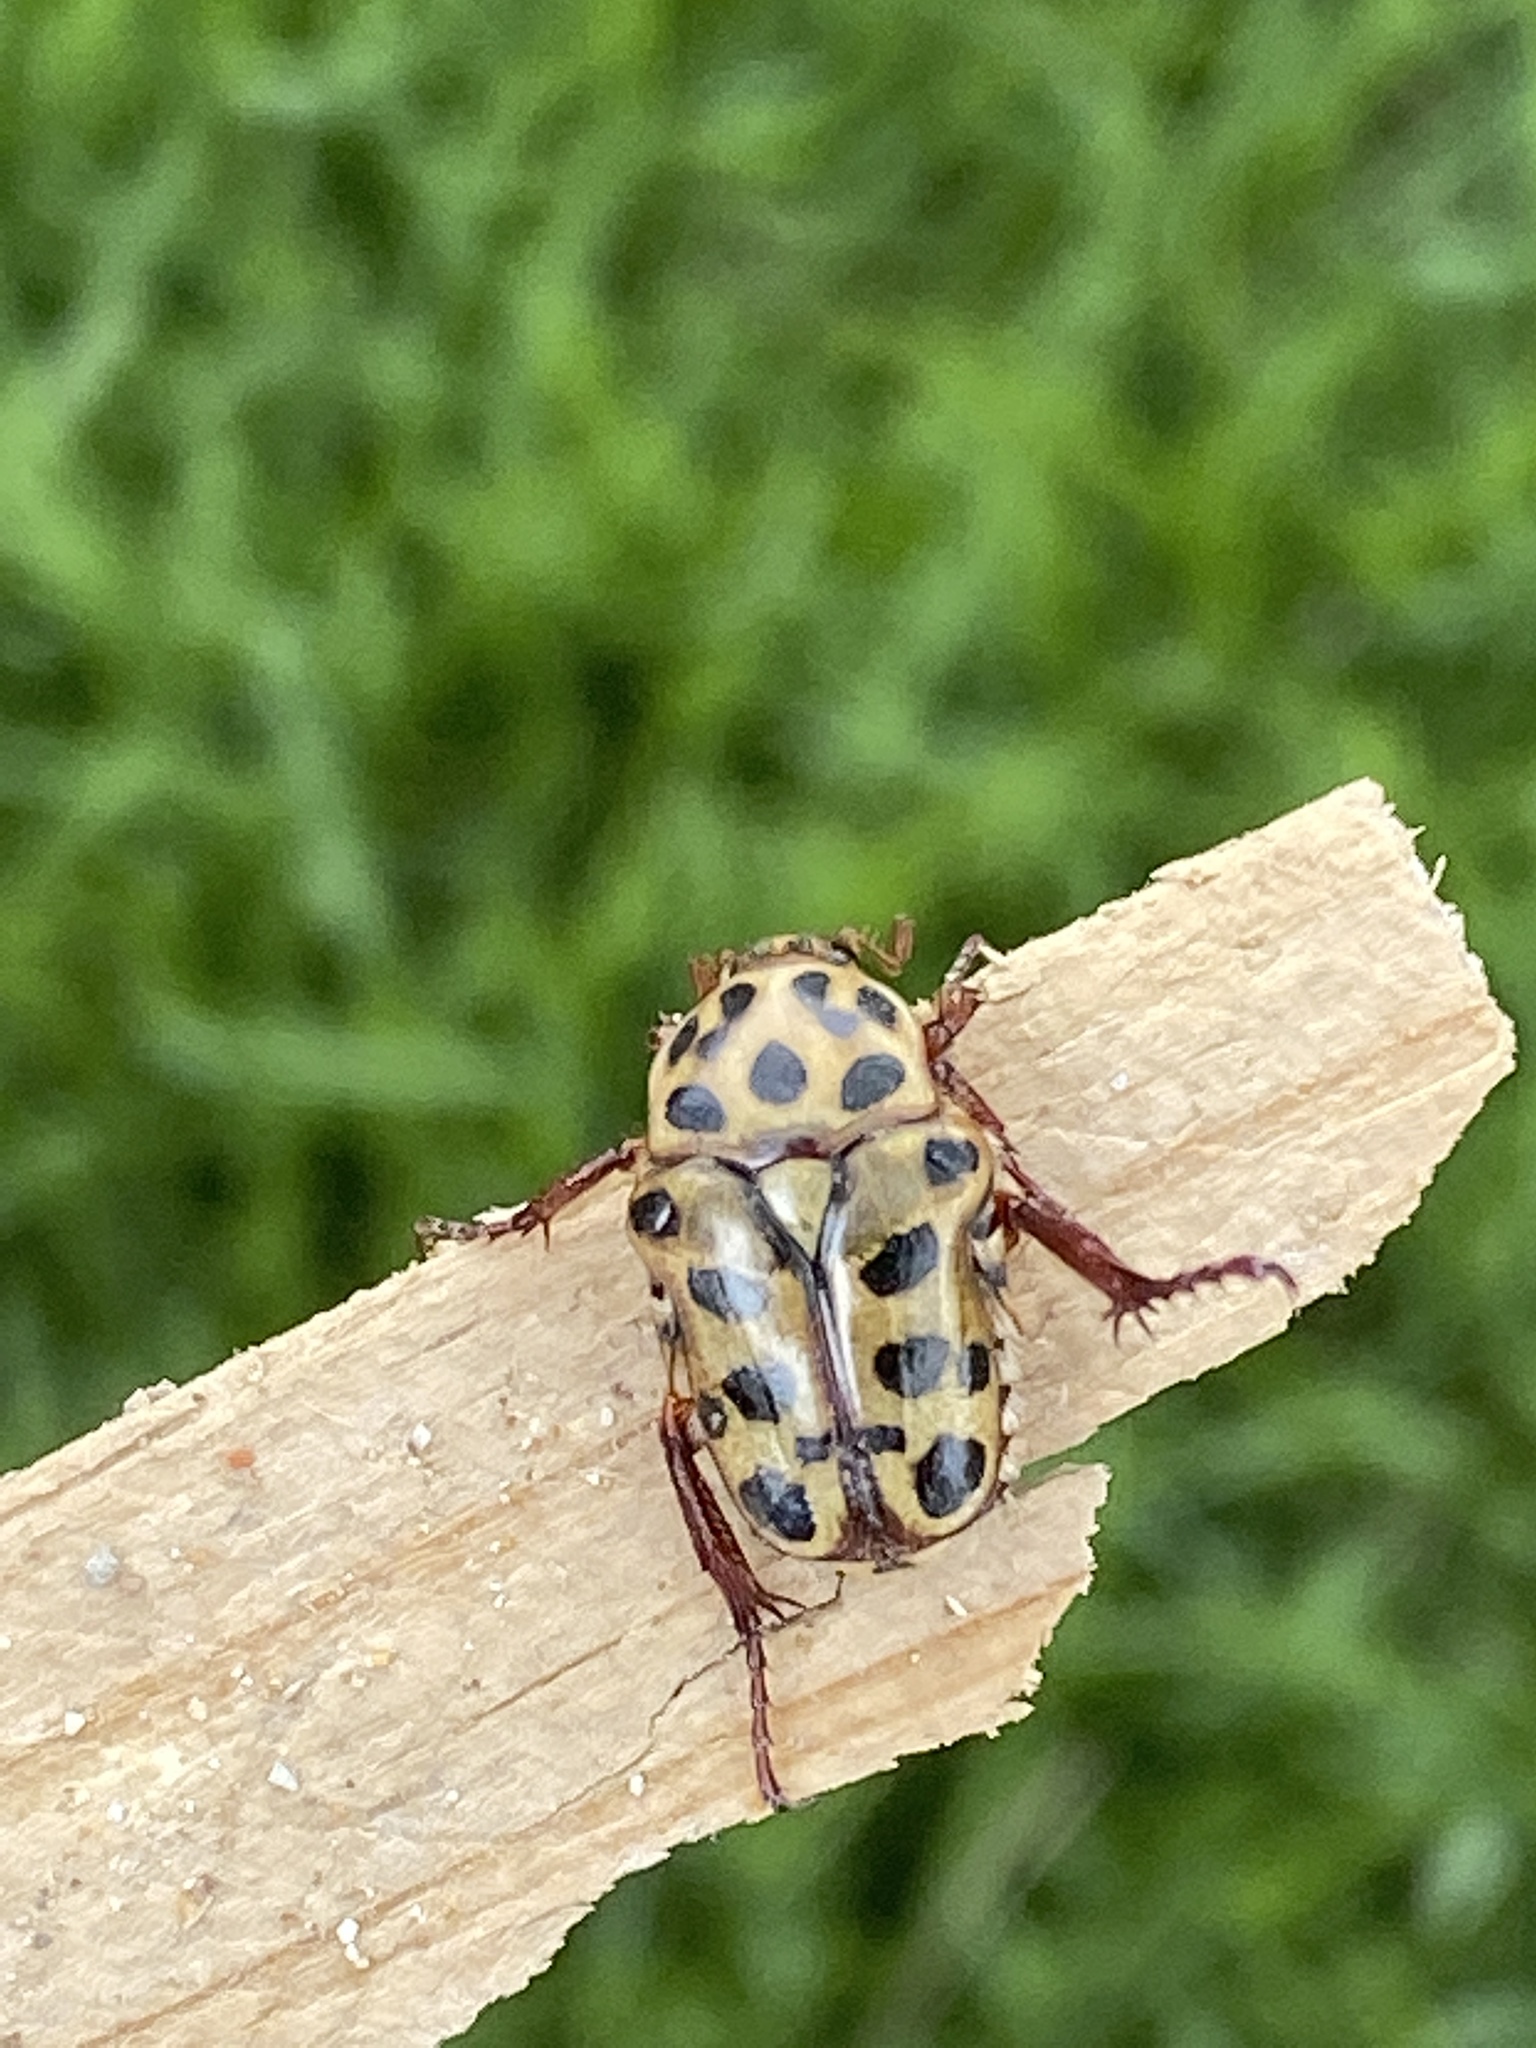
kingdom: Animalia
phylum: Arthropoda
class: Insecta
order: Coleoptera
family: Scarabaeidae
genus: Neorrhina
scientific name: Neorrhina punctatum
